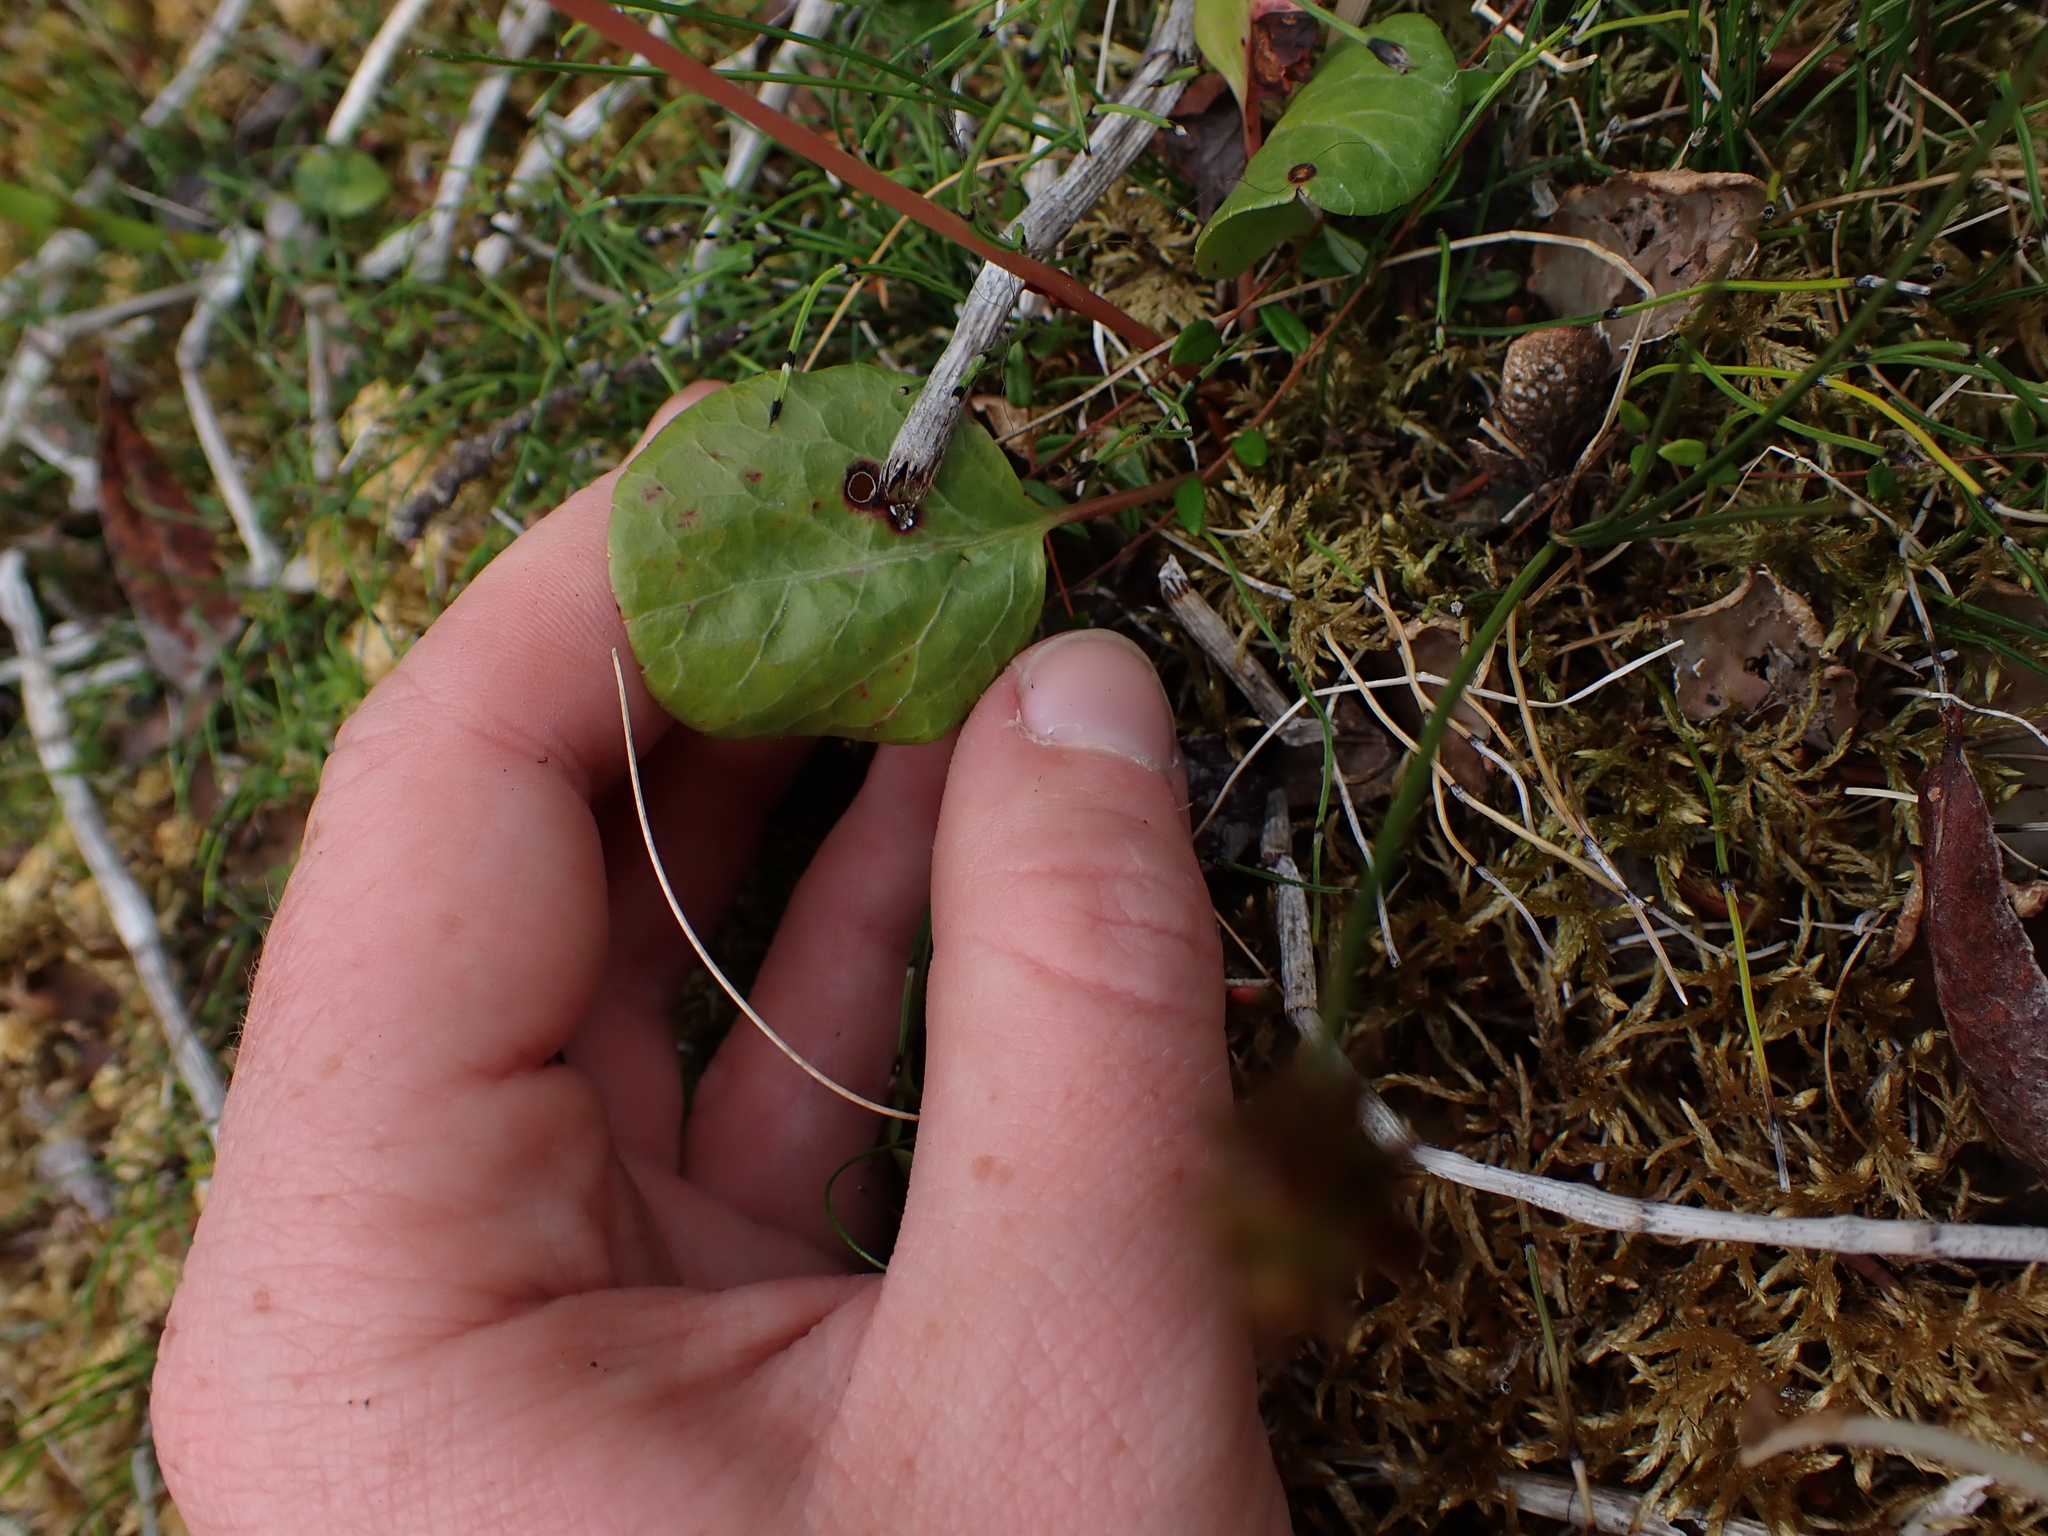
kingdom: Plantae
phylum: Tracheophyta
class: Magnoliopsida
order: Ericales
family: Ericaceae
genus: Pyrola
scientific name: Pyrola asarifolia
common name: Bog wintergreen
